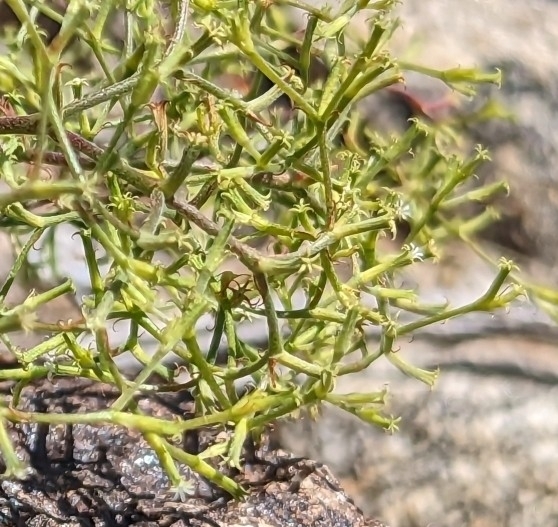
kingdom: Plantae
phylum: Tracheophyta
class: Magnoliopsida
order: Caryophyllales
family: Polygonaceae
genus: Chorizanthe
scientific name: Chorizanthe brevicornu
